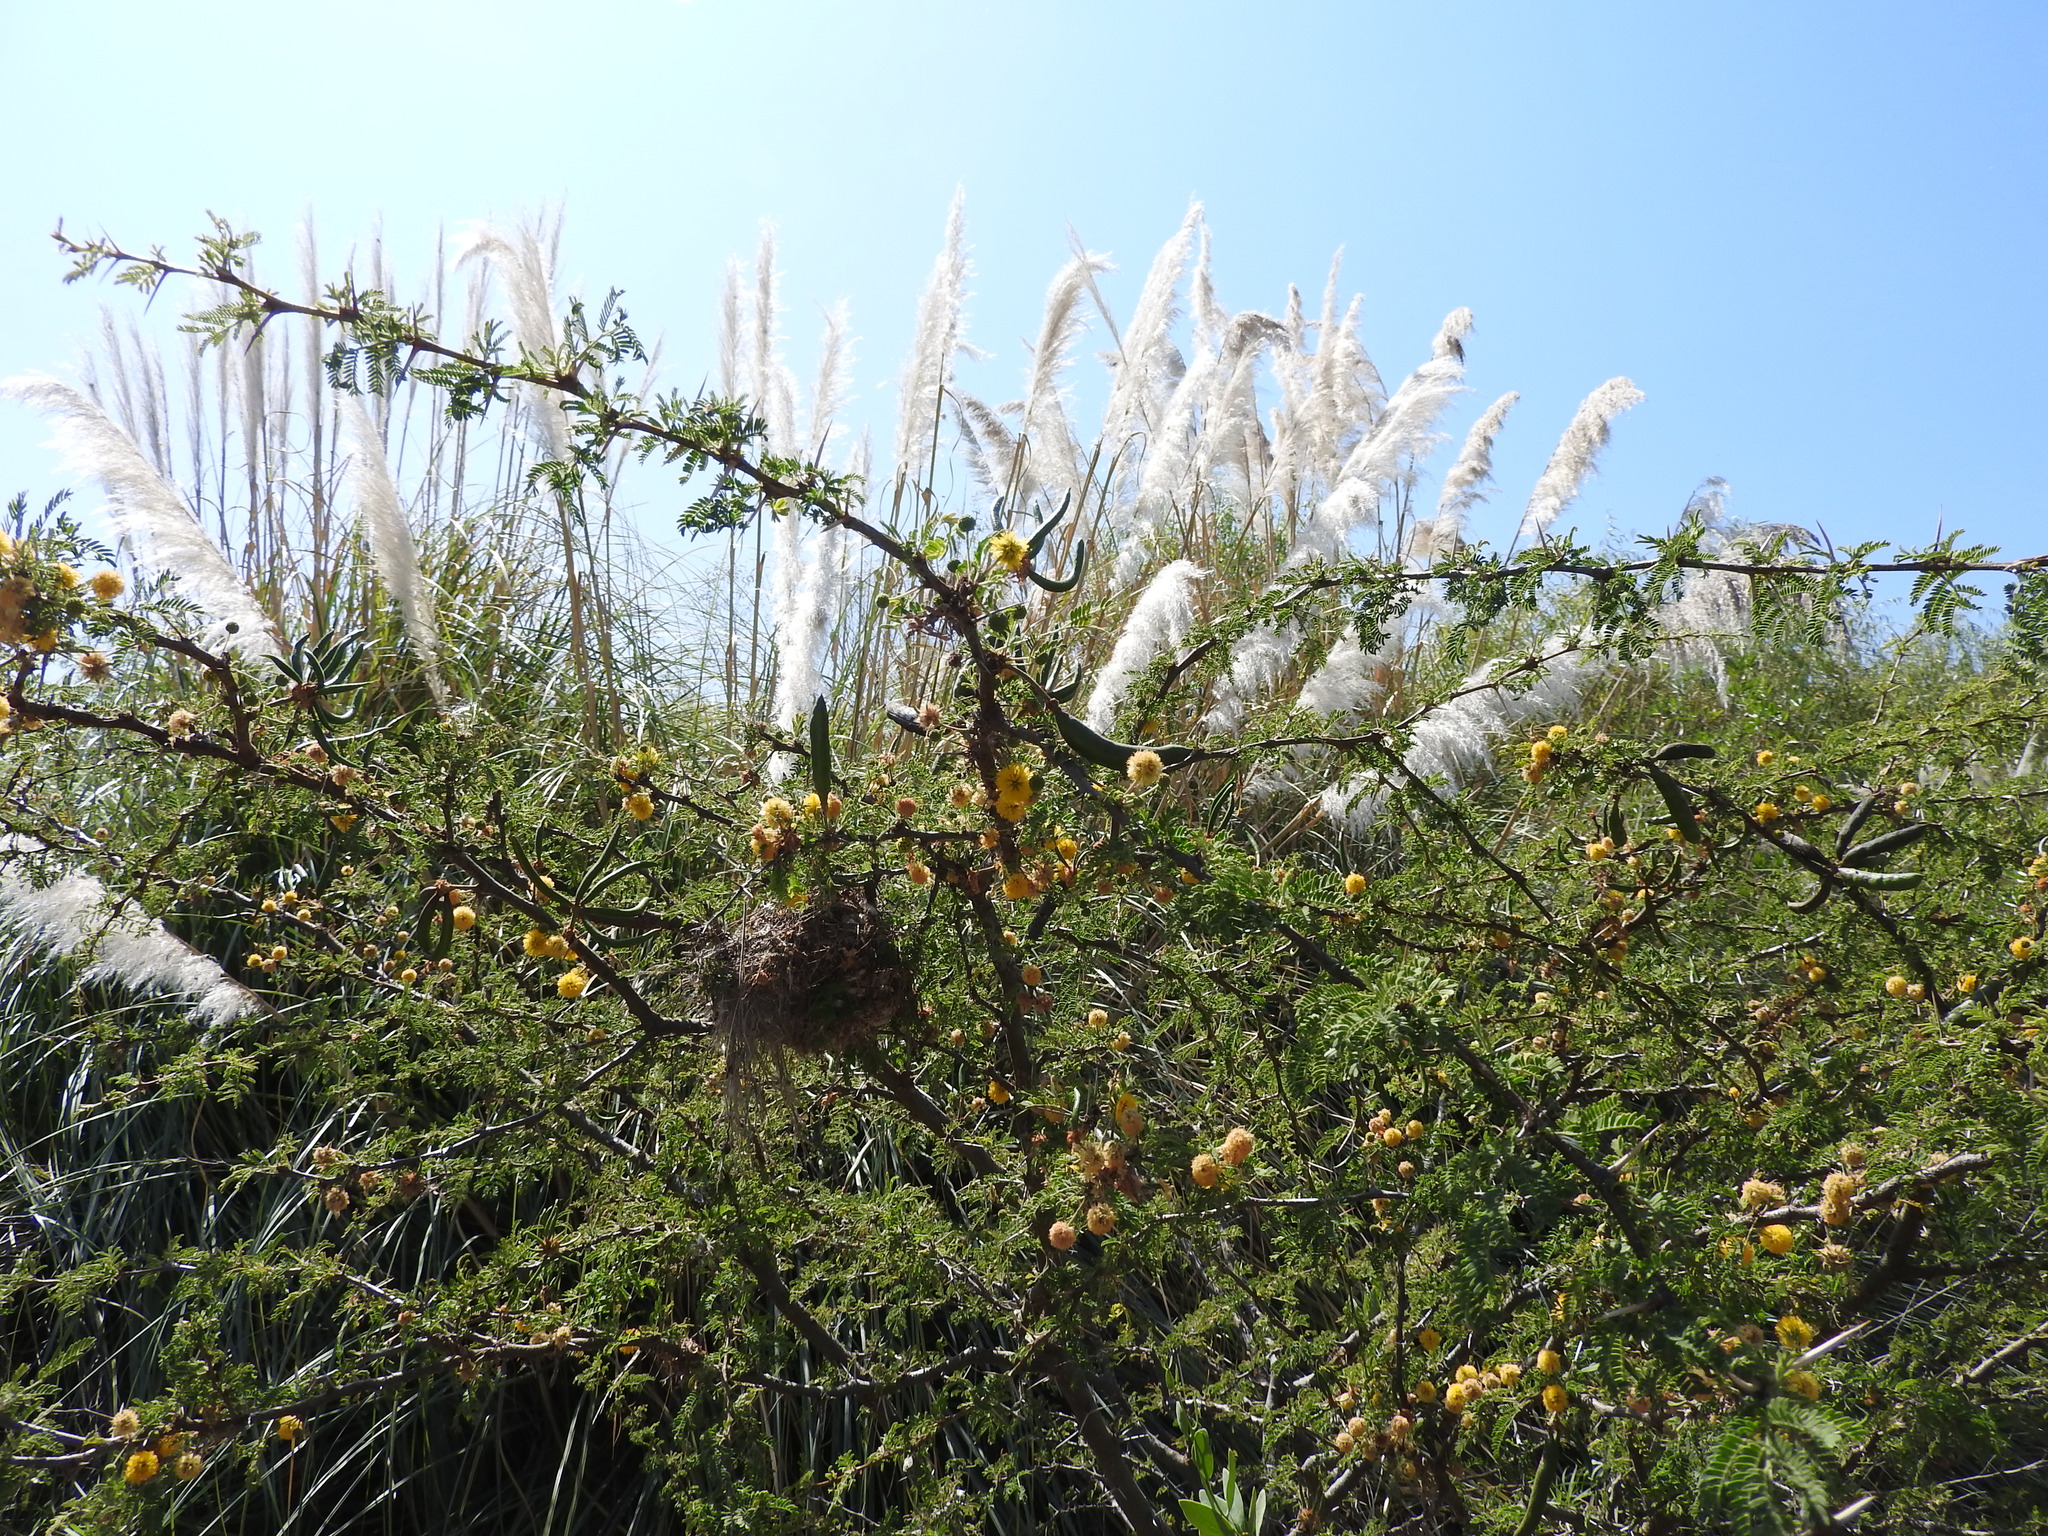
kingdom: Plantae
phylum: Tracheophyta
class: Magnoliopsida
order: Fabales
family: Fabaceae
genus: Vachellia
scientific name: Vachellia farnesiana
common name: Sweet acacia
